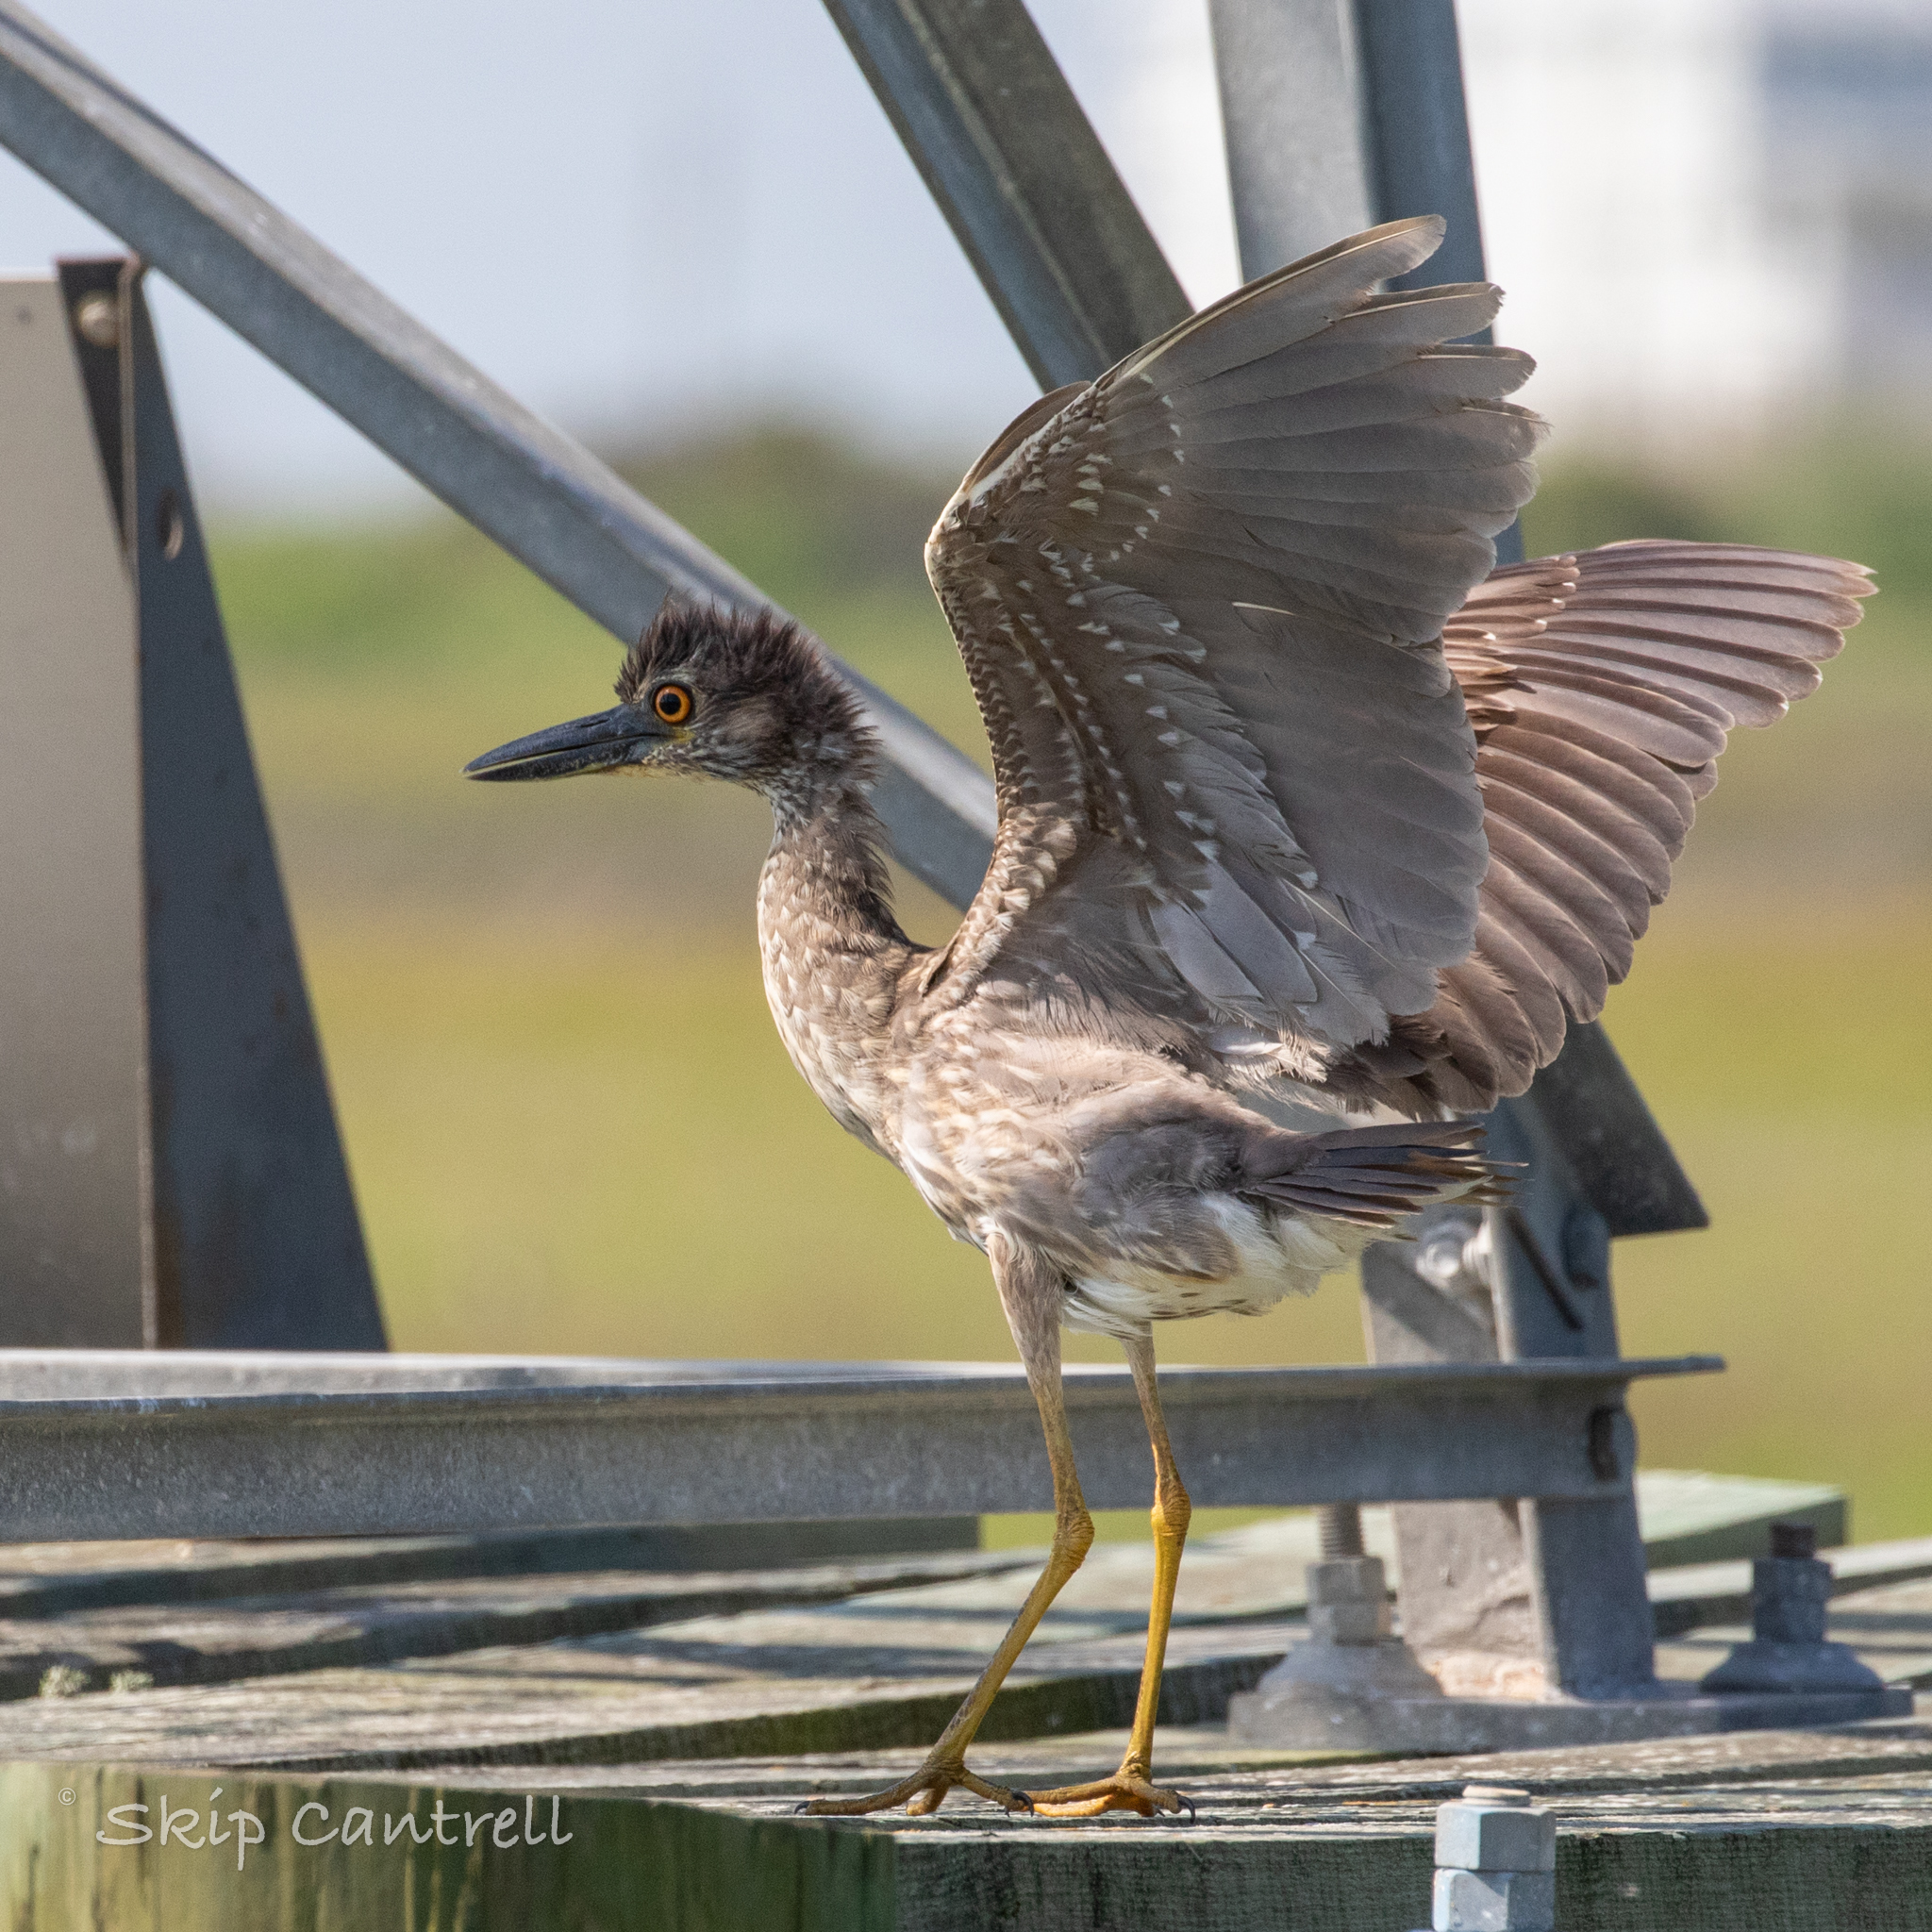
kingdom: Animalia
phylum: Chordata
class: Aves
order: Pelecaniformes
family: Ardeidae
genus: Nyctanassa
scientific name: Nyctanassa violacea
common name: Yellow-crowned night heron
